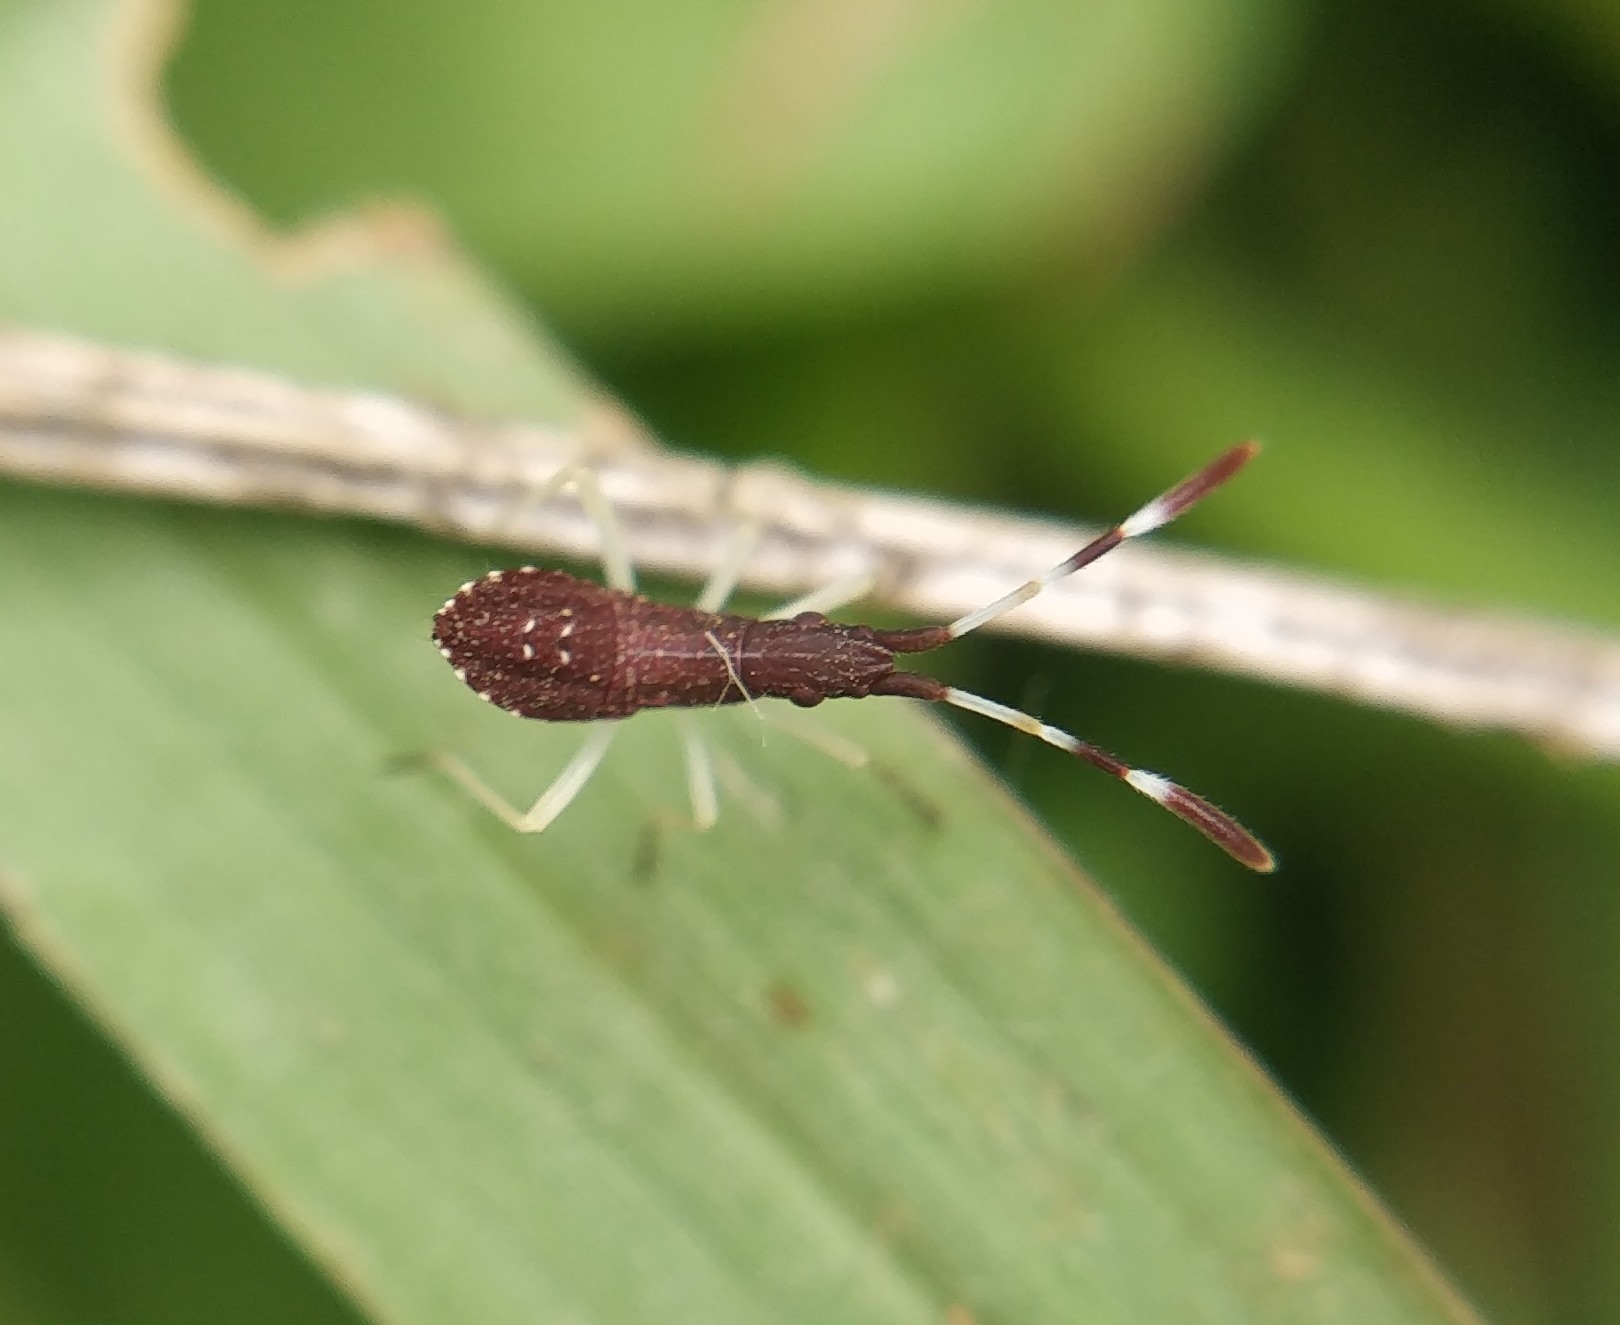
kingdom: Animalia
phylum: Arthropoda
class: Insecta
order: Hemiptera
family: Stenocephalidae
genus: Dicranocephalus
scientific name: Dicranocephalus agilis
